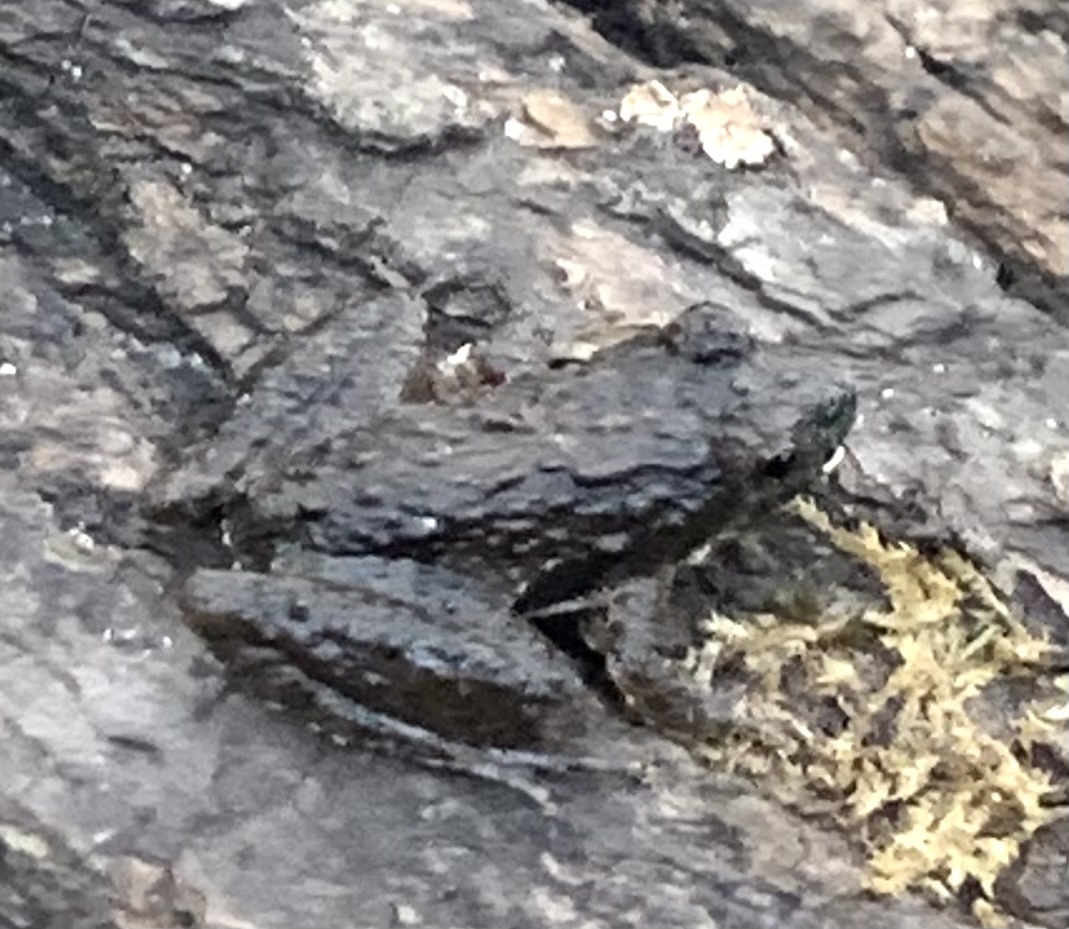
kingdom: Animalia
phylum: Chordata
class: Amphibia
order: Anura
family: Hylidae
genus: Acris
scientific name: Acris blanchardi
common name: Blanchard's cricket frog
